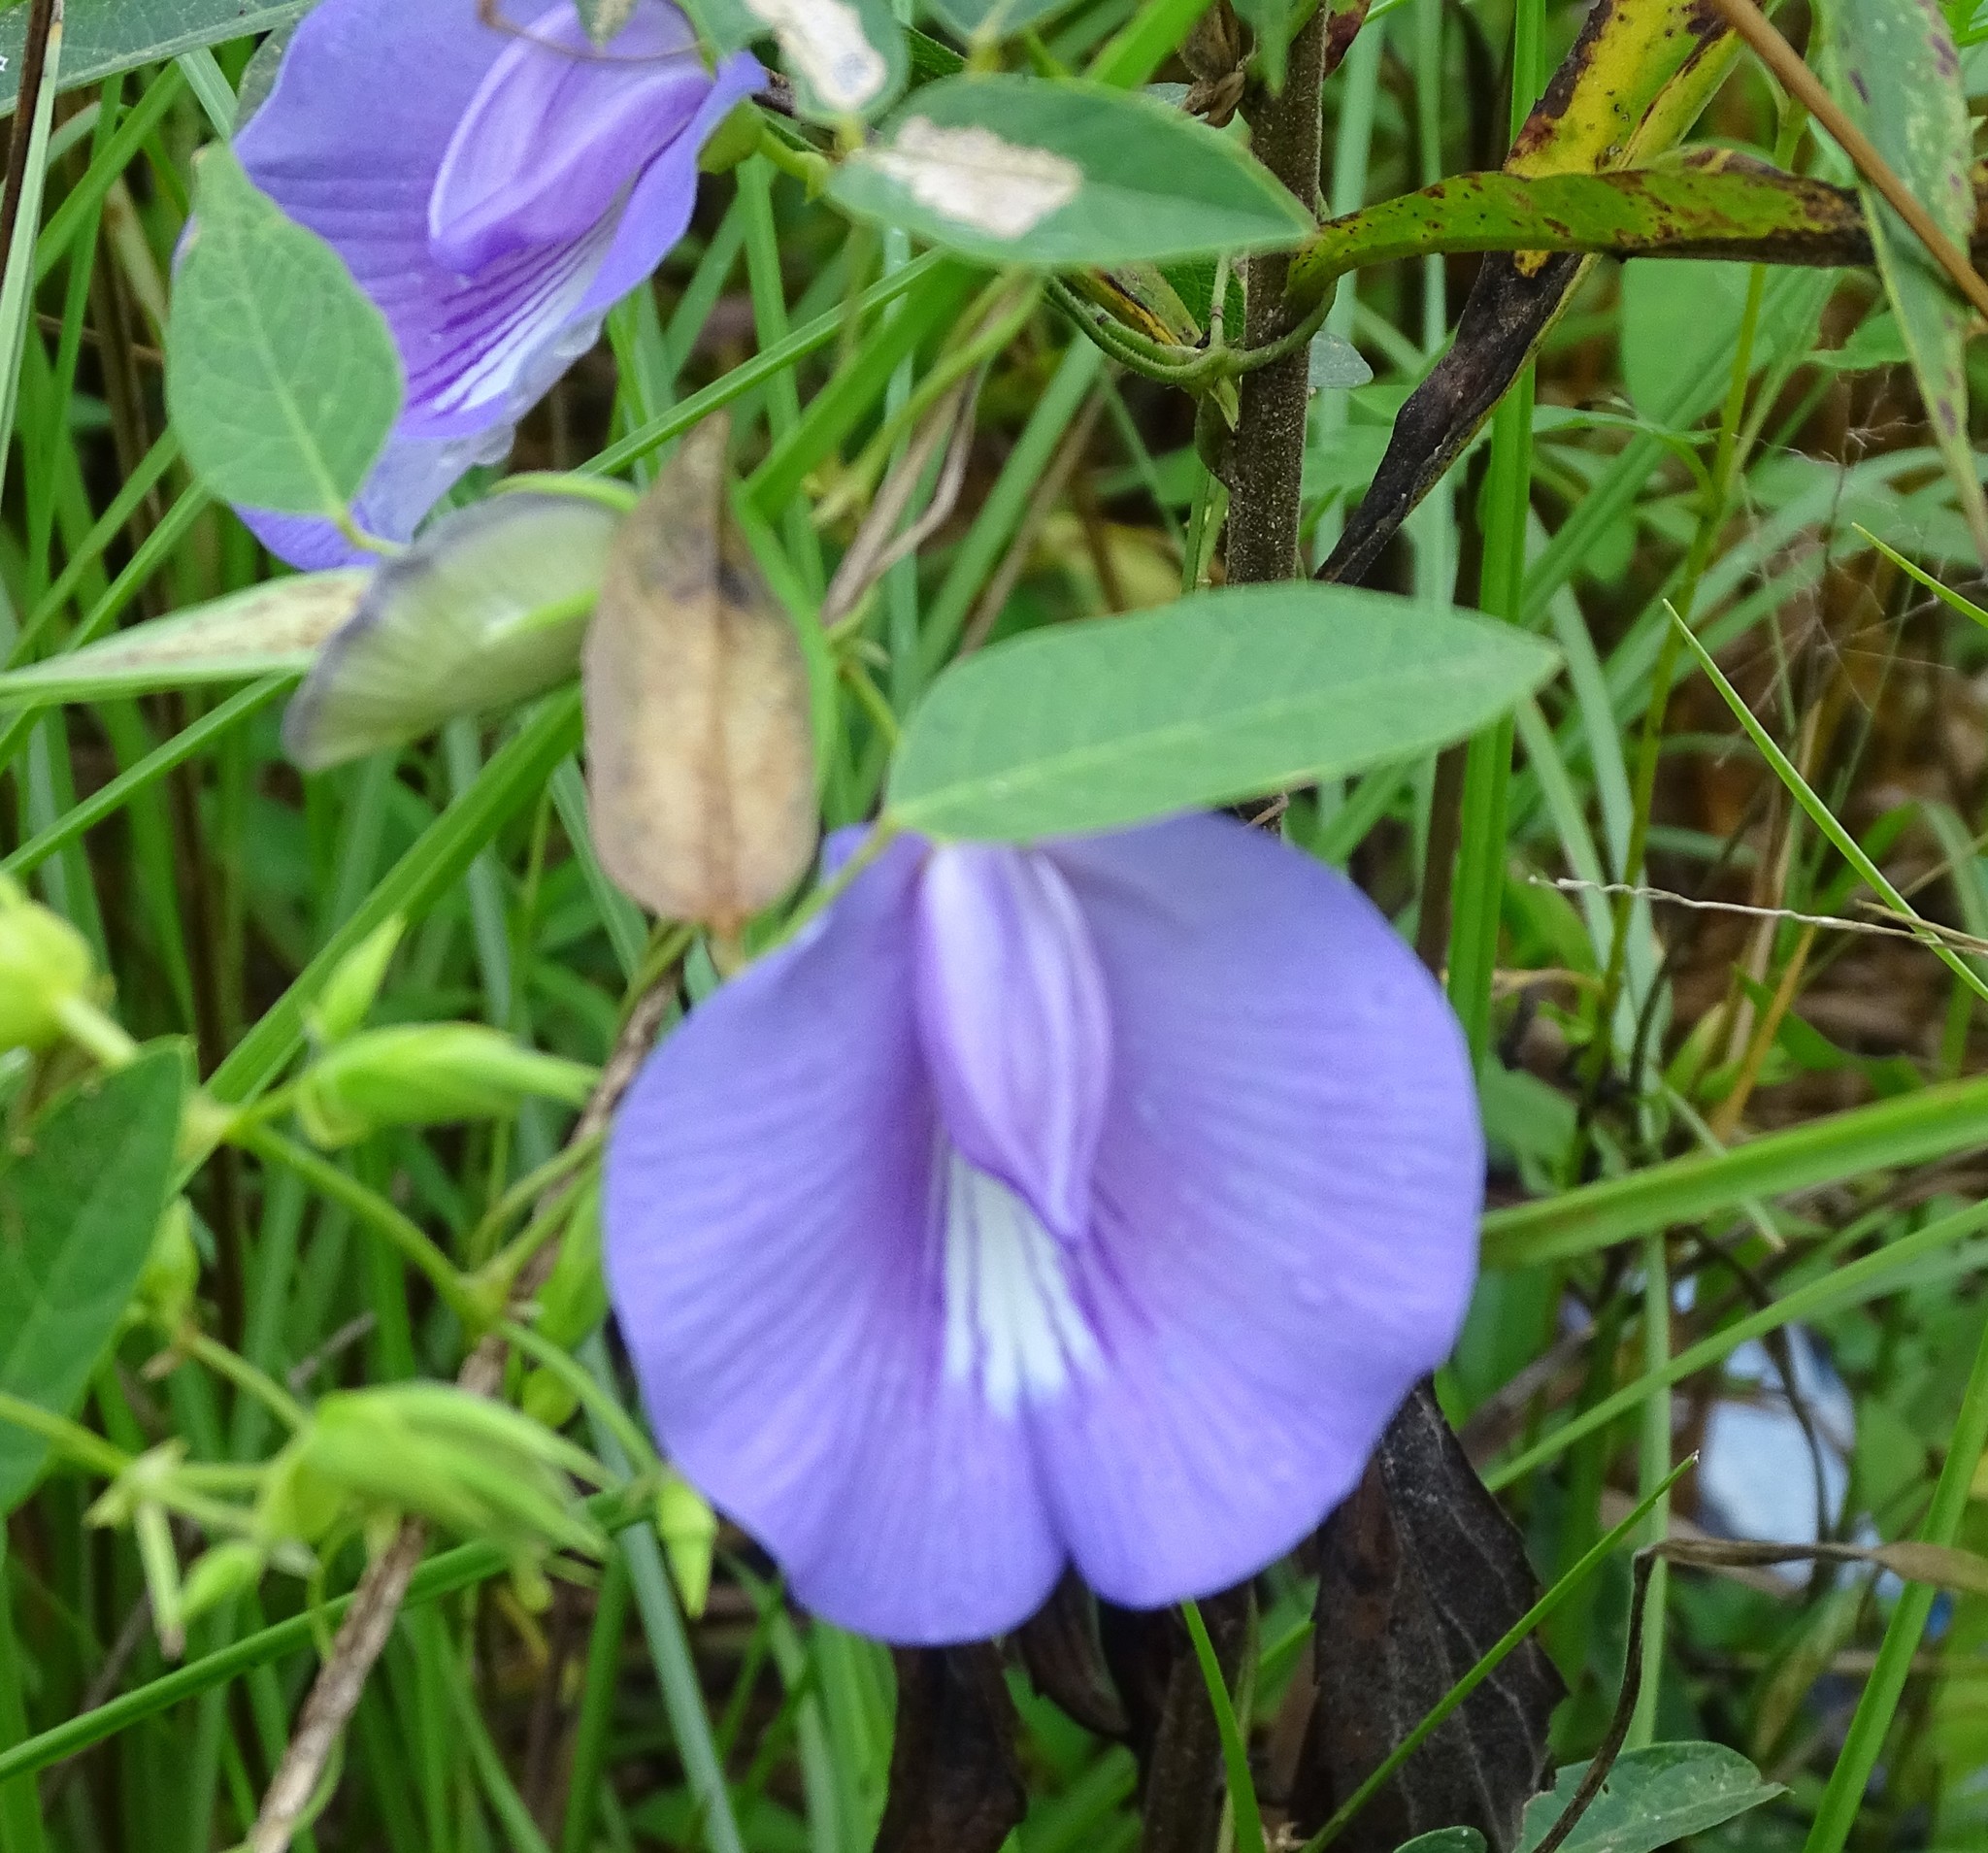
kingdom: Plantae
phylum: Tracheophyta
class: Magnoliopsida
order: Fabales
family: Fabaceae
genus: Centrosema
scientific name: Centrosema virginianum
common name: Butterfly-pea
